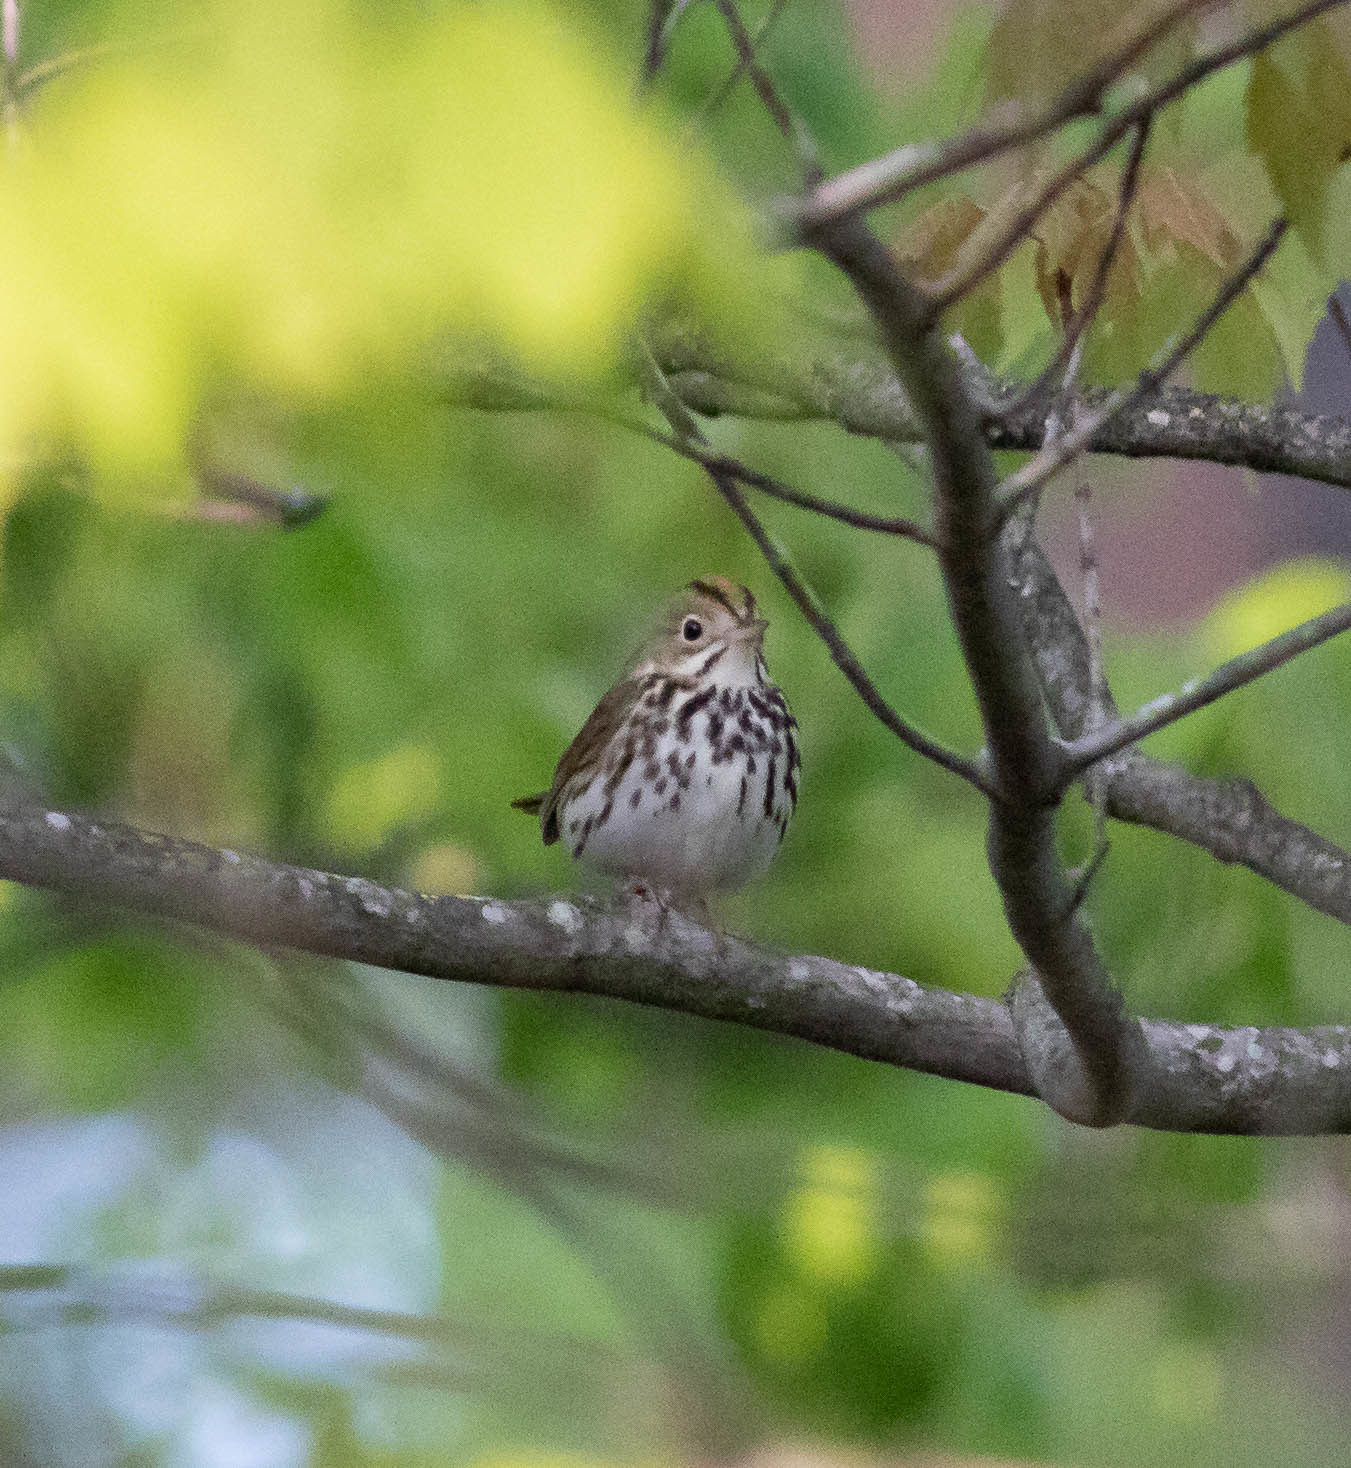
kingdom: Animalia
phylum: Chordata
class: Aves
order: Passeriformes
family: Parulidae
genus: Seiurus
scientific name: Seiurus aurocapilla
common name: Ovenbird
